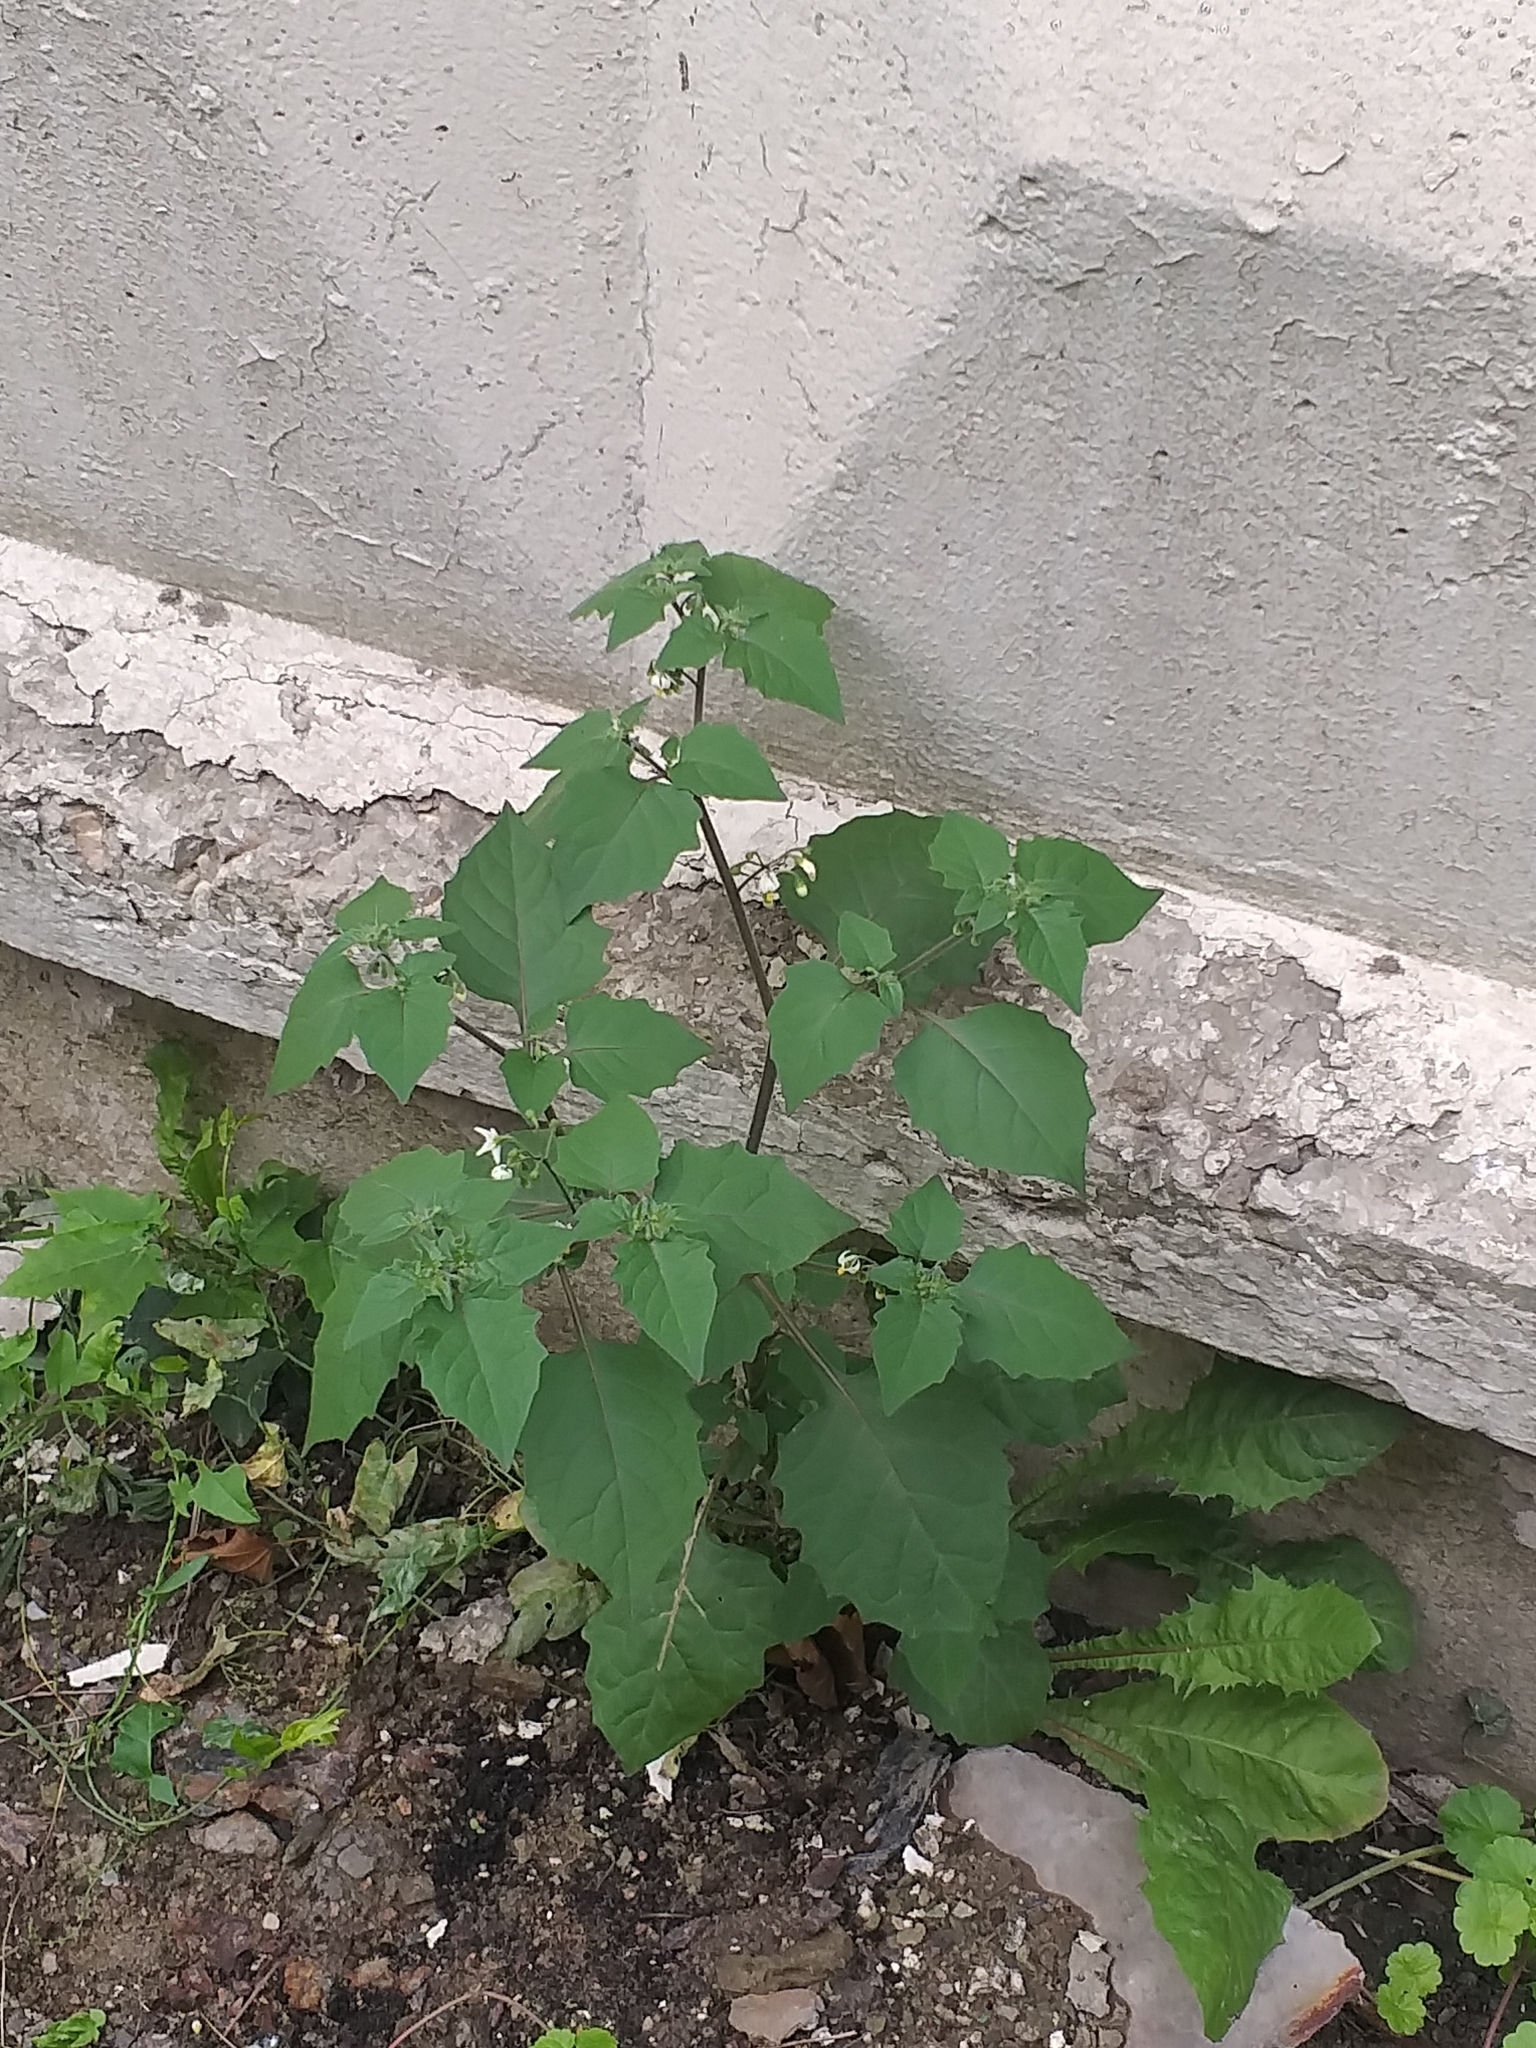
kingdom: Plantae
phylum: Tracheophyta
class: Magnoliopsida
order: Solanales
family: Solanaceae
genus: Solanum
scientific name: Solanum nigrum
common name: Black nightshade
